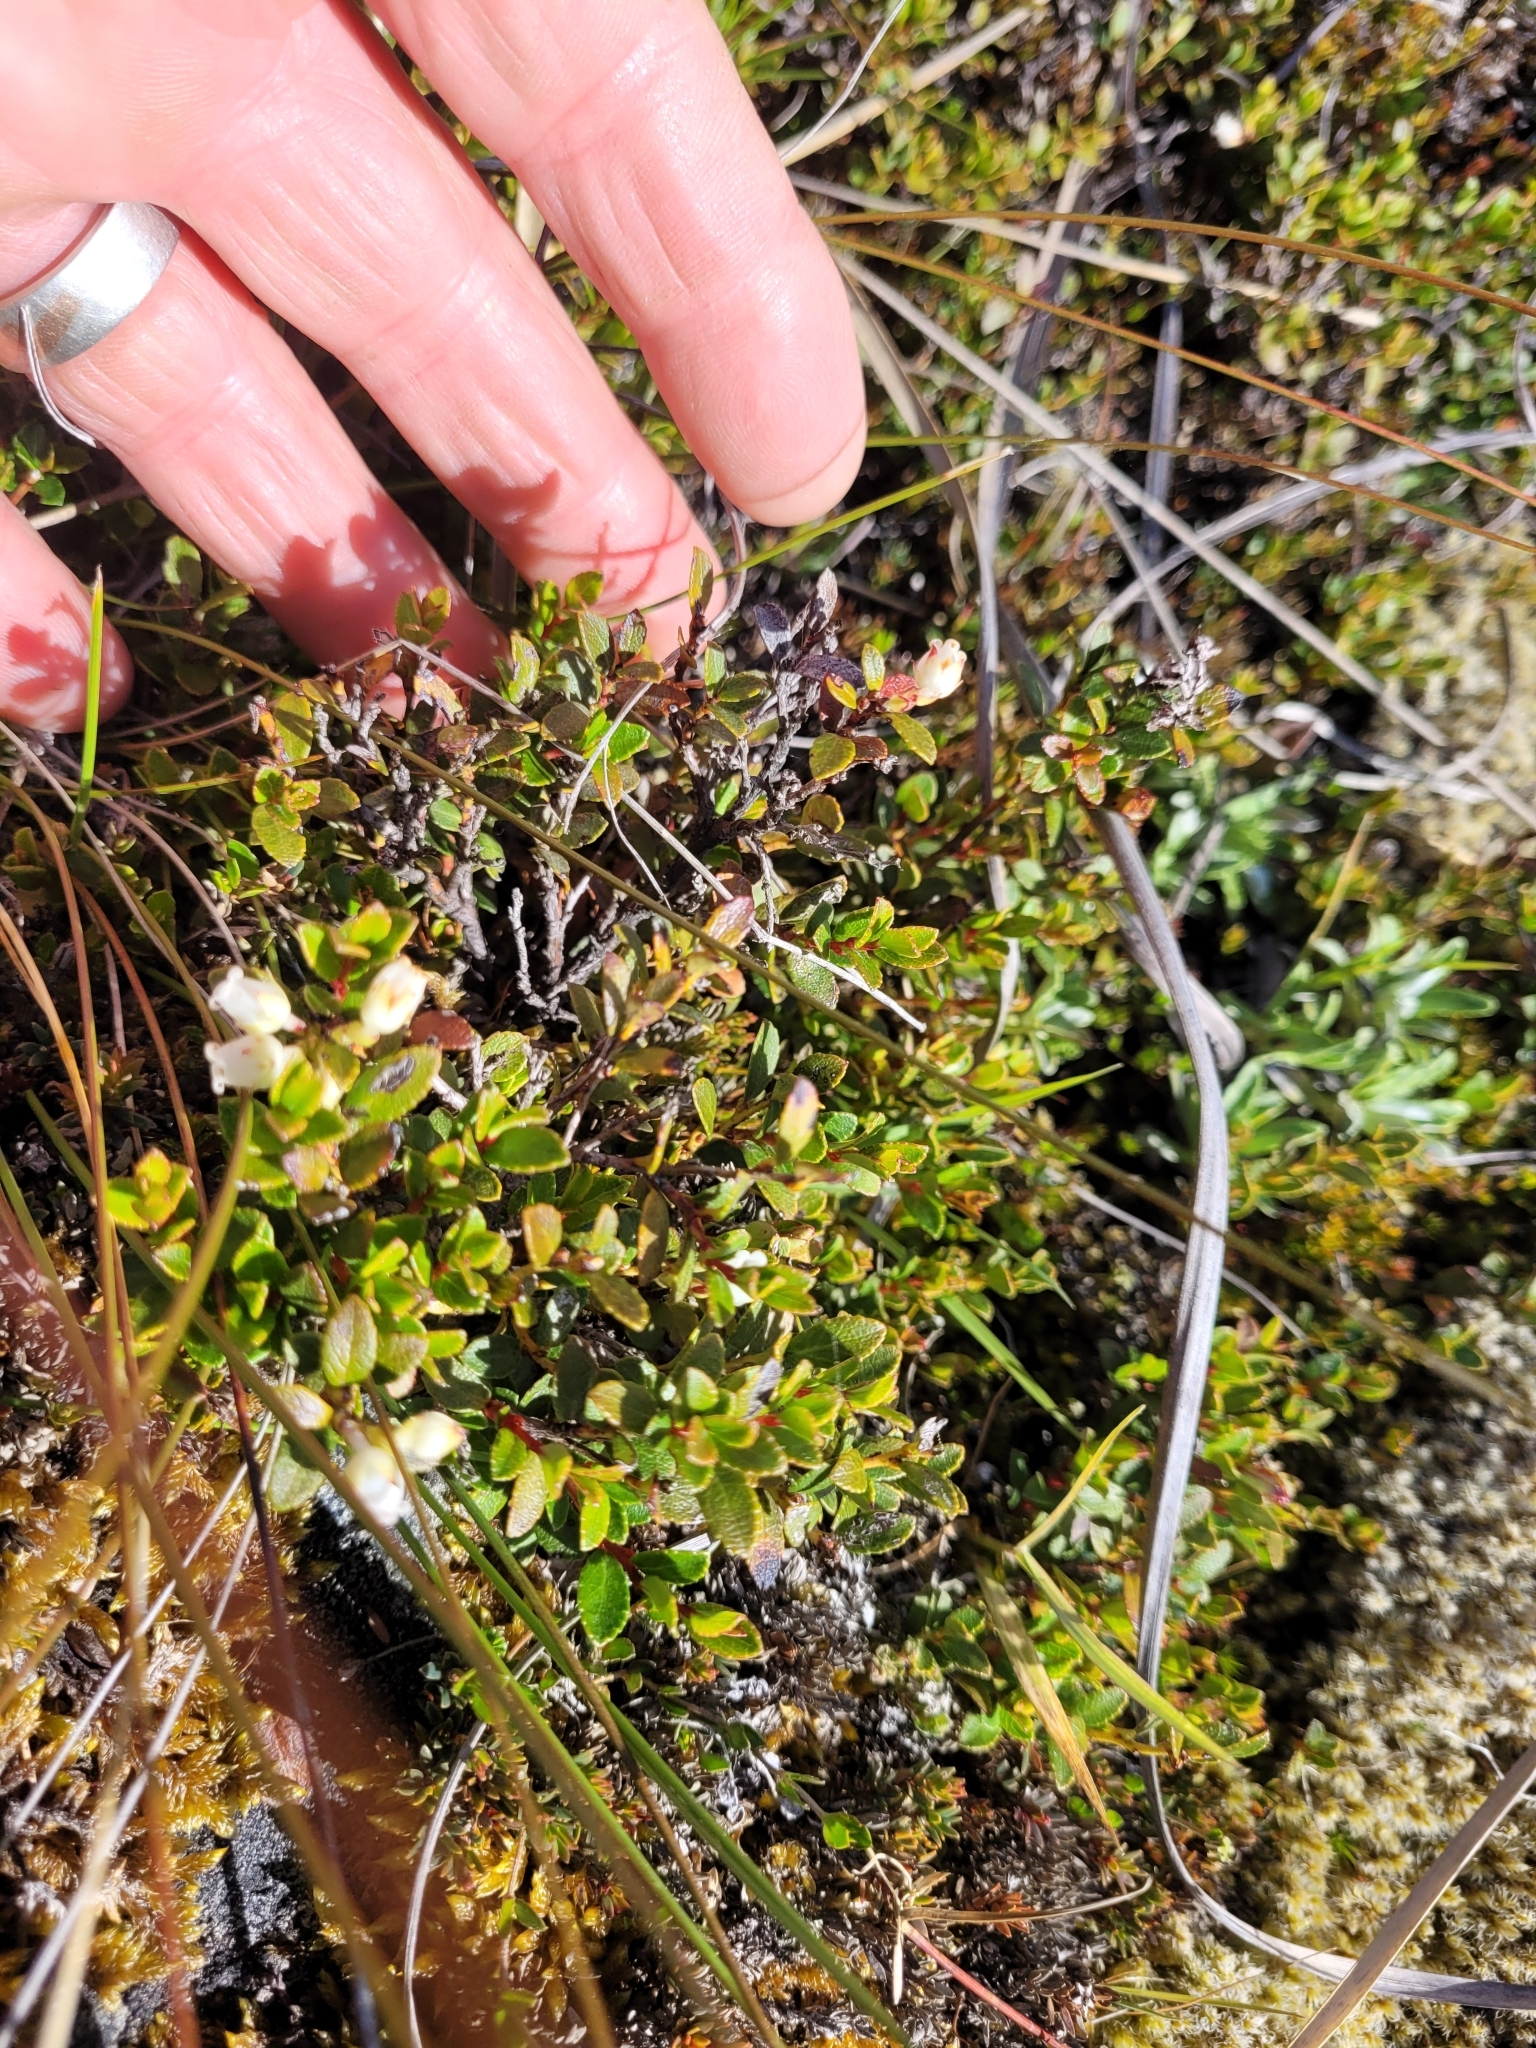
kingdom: Plantae
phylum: Tracheophyta
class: Magnoliopsida
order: Ericales
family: Ericaceae
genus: Gaultheria
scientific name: Gaultheria depressa
